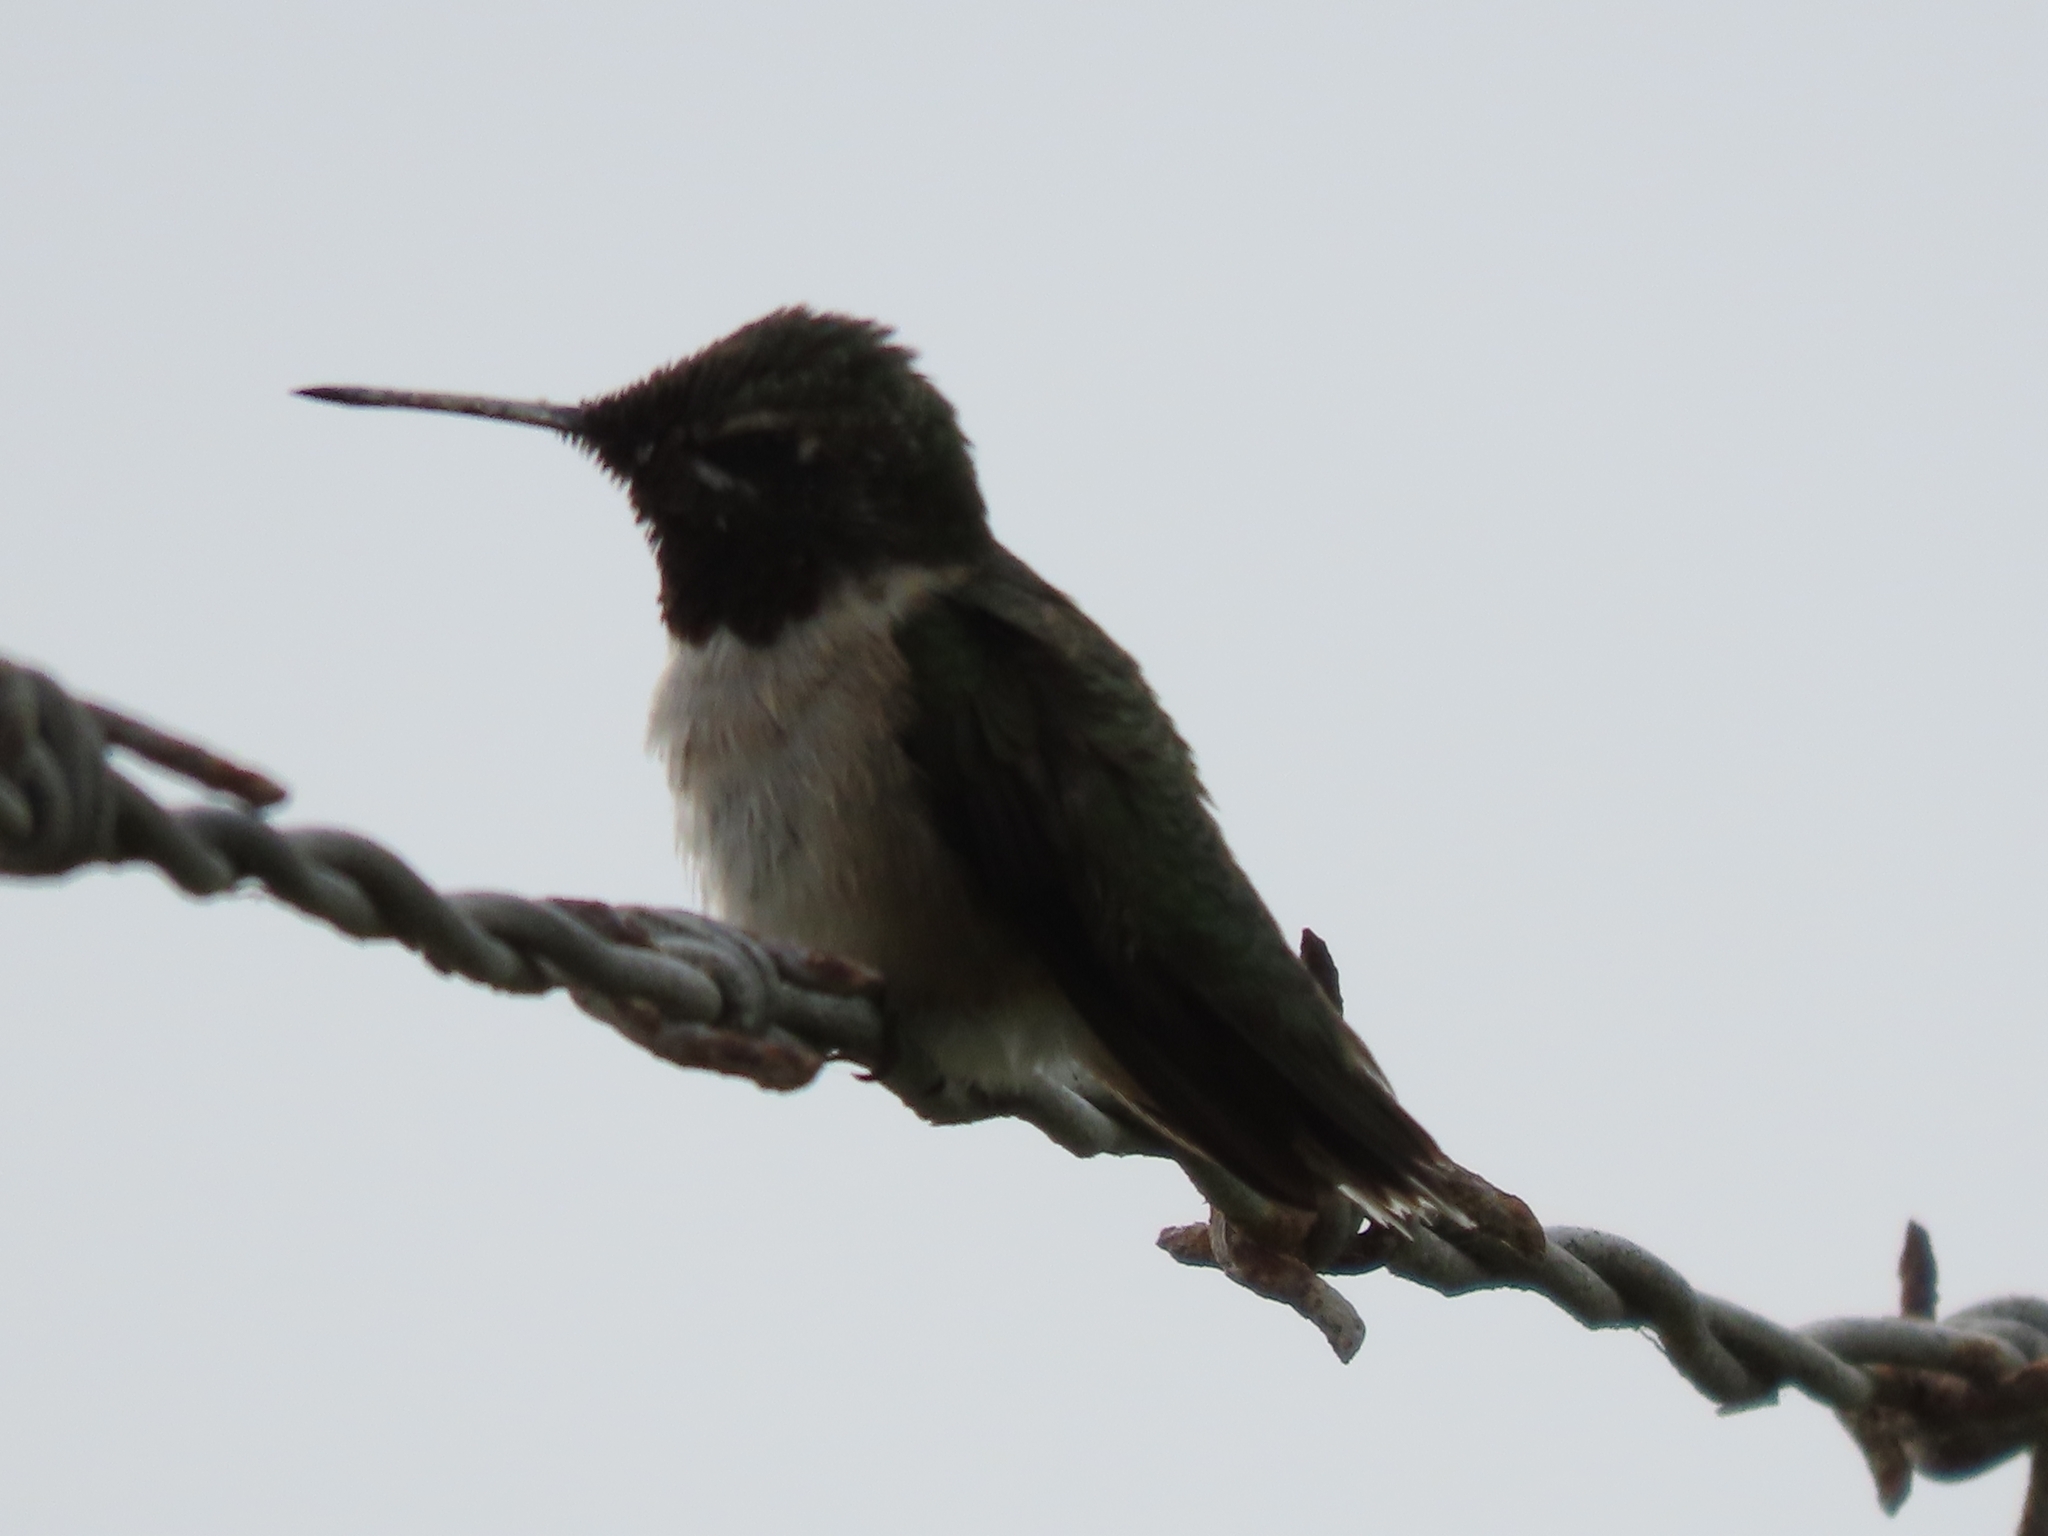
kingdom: Animalia
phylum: Chordata
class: Aves
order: Apodiformes
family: Trochilidae
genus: Archilochus
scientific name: Archilochus colubris
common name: Ruby-throated hummingbird
